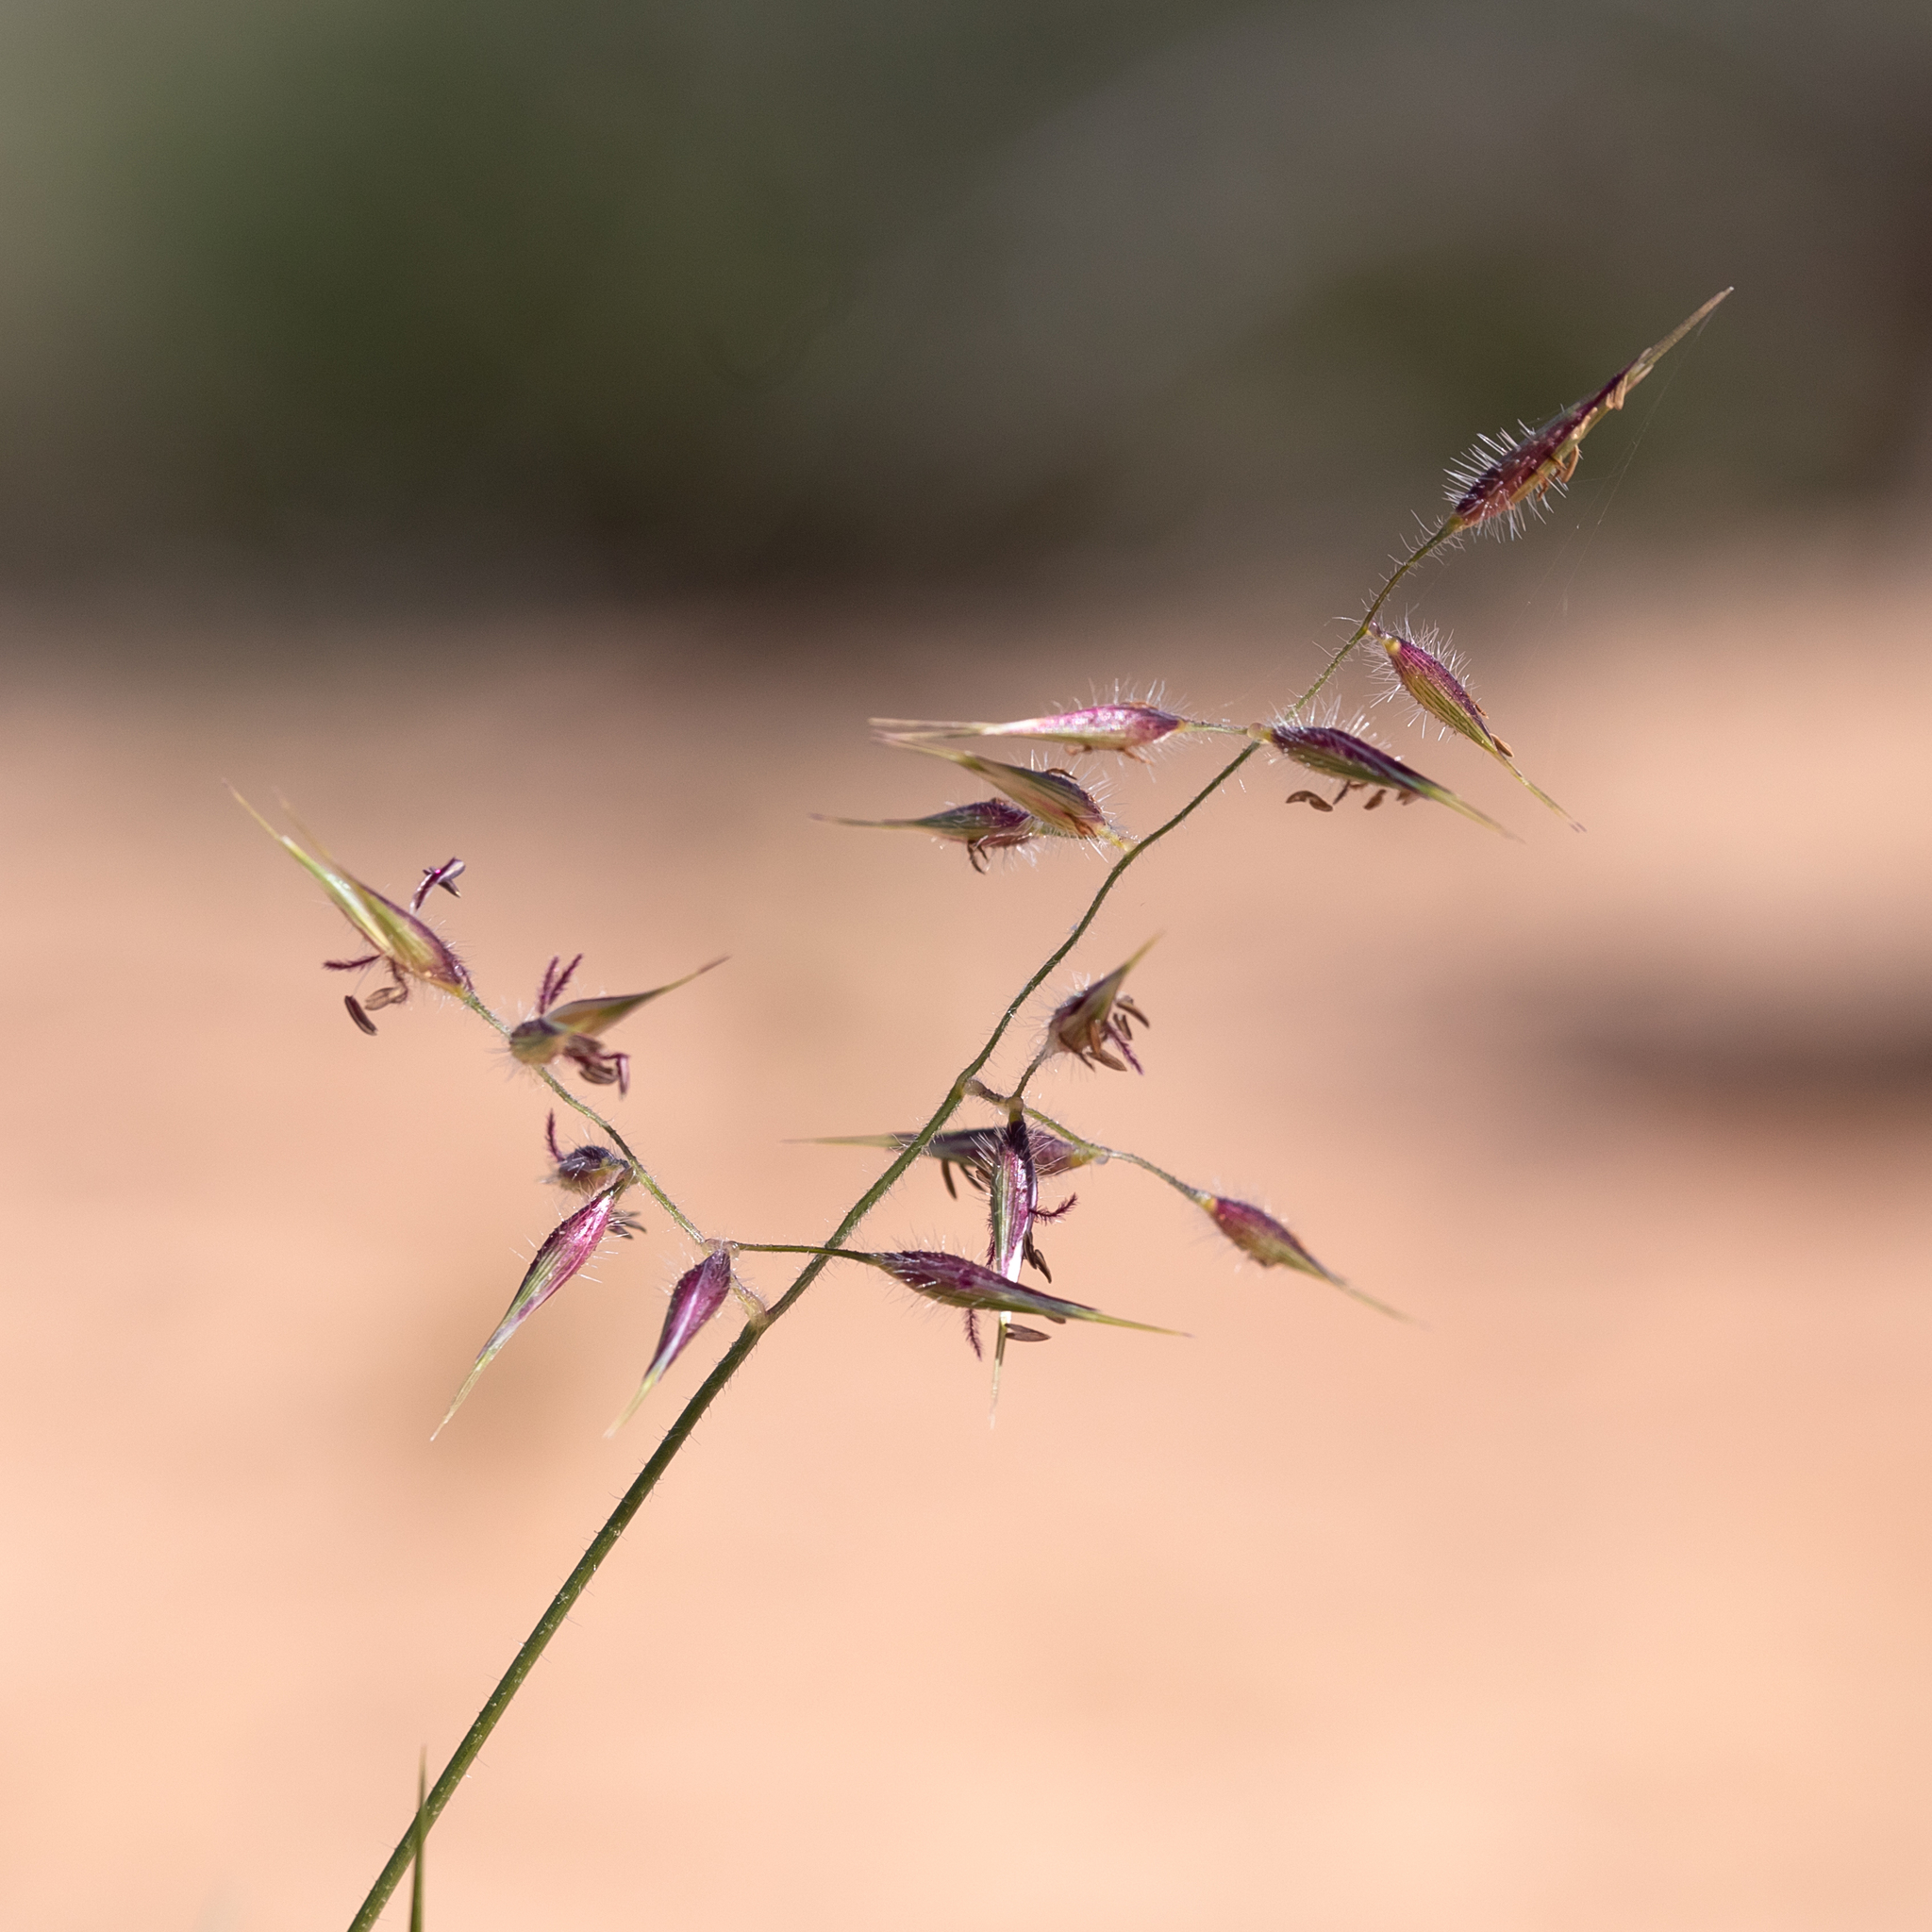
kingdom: Plantae
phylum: Tracheophyta
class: Liliopsida
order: Poales
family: Poaceae
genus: Eriachne
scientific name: Eriachne aristidea
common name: Three-awn wanderrie grass
